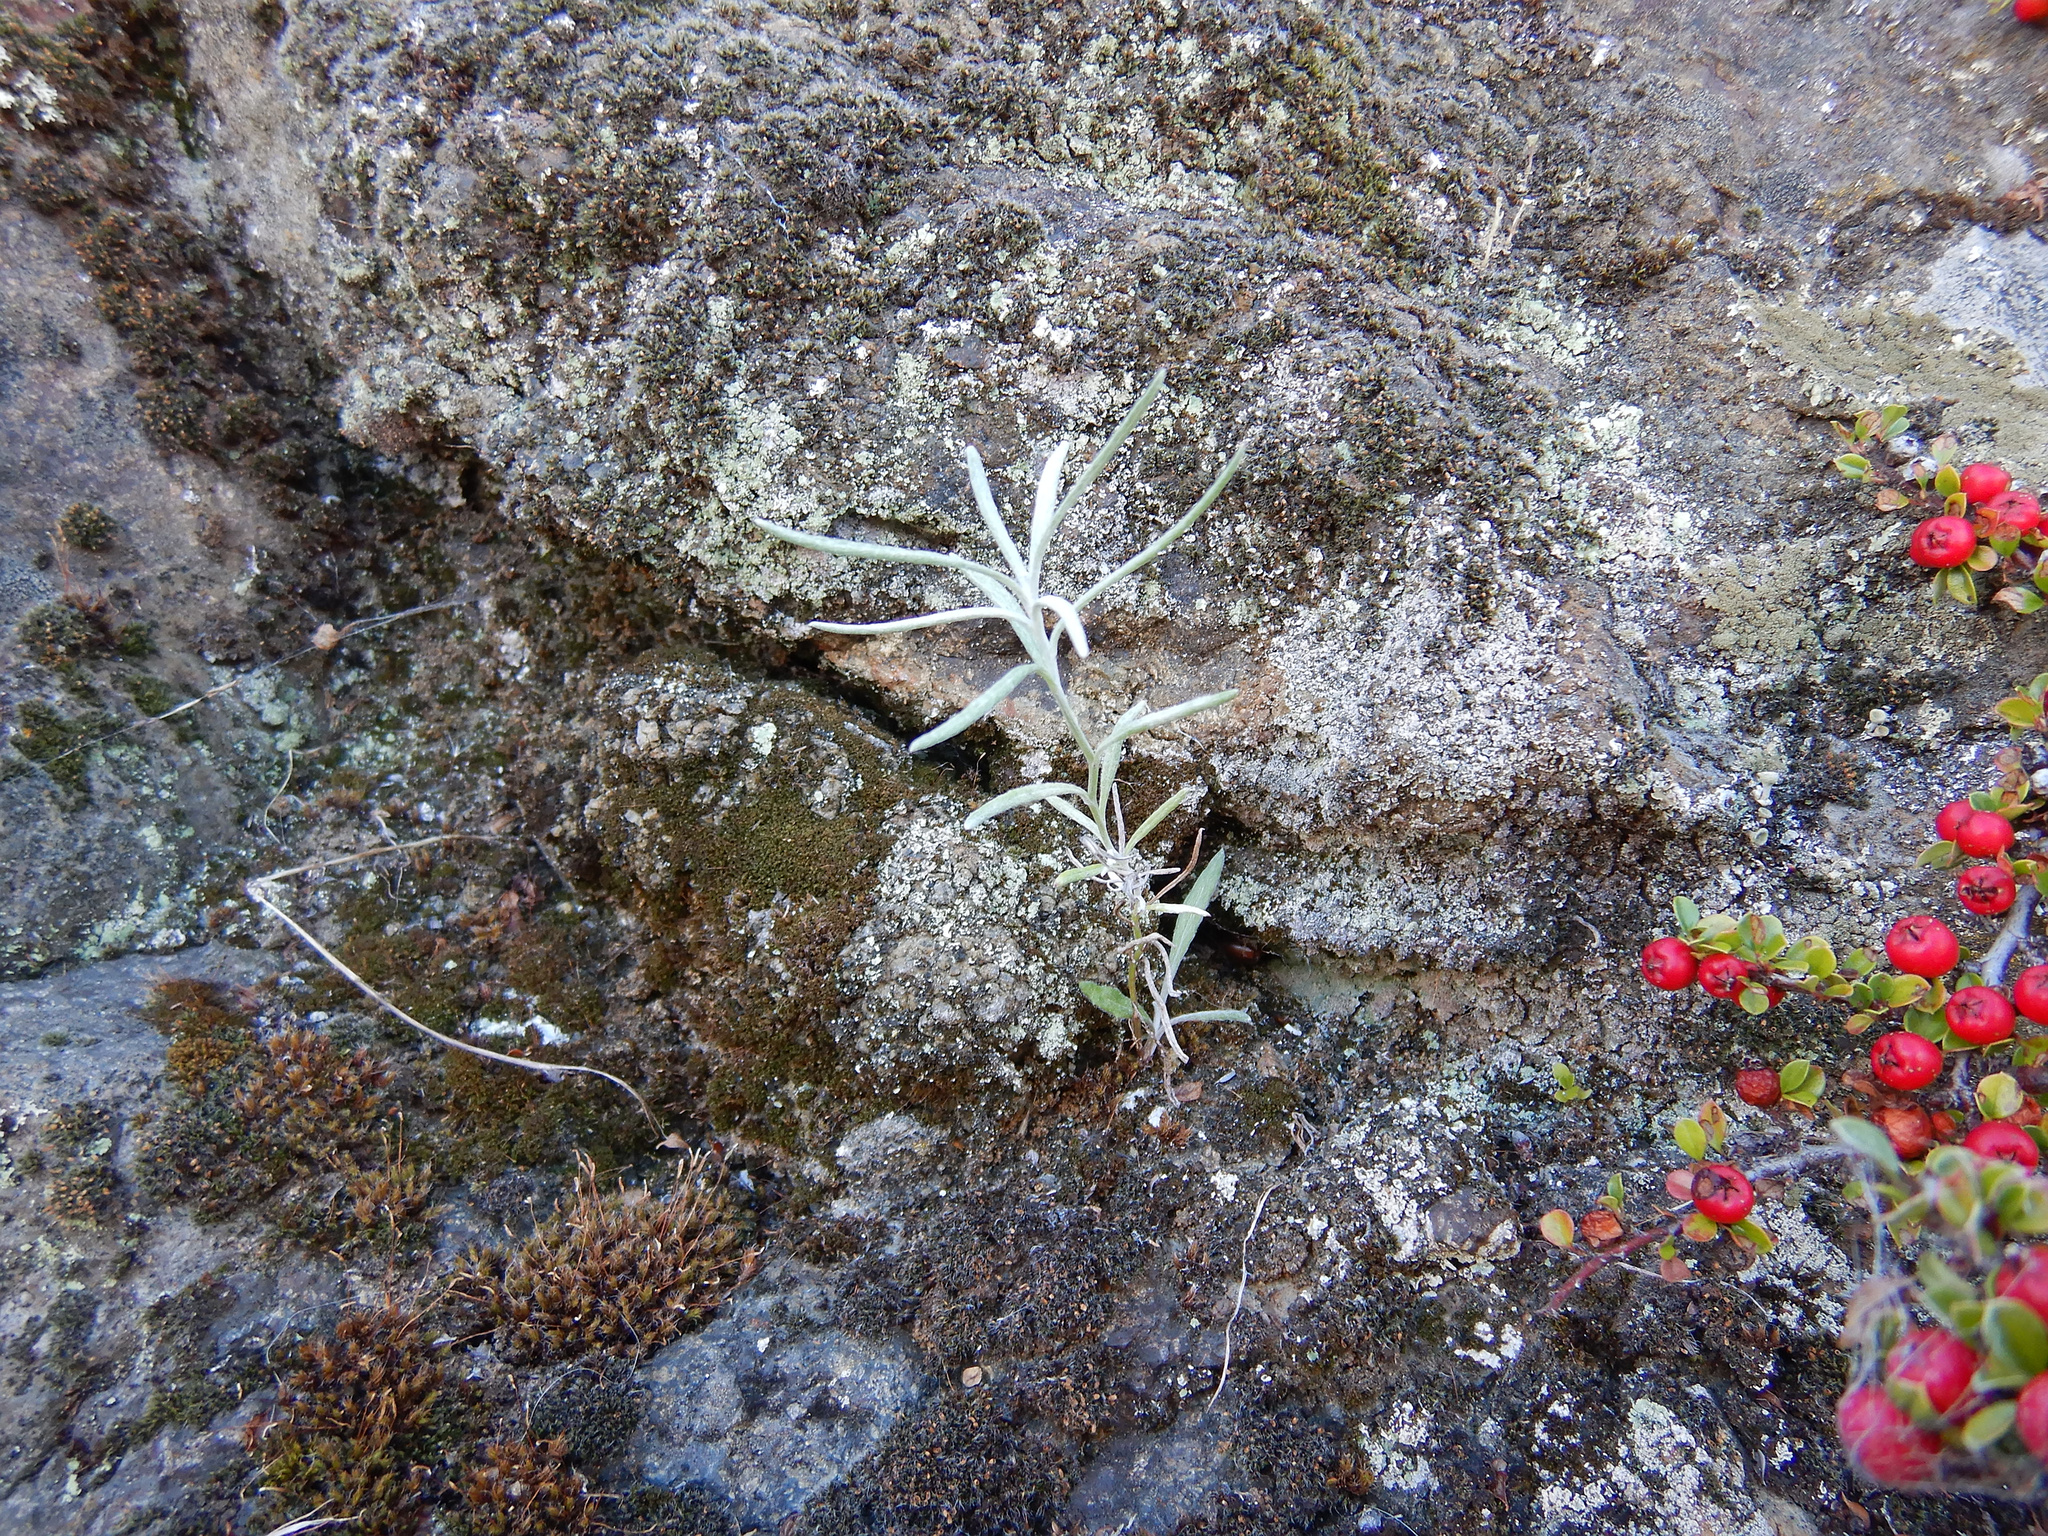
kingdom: Plantae
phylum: Tracheophyta
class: Magnoliopsida
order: Asterales
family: Asteraceae
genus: Senecio
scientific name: Senecio quadridentatus
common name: Cotton fireweed
